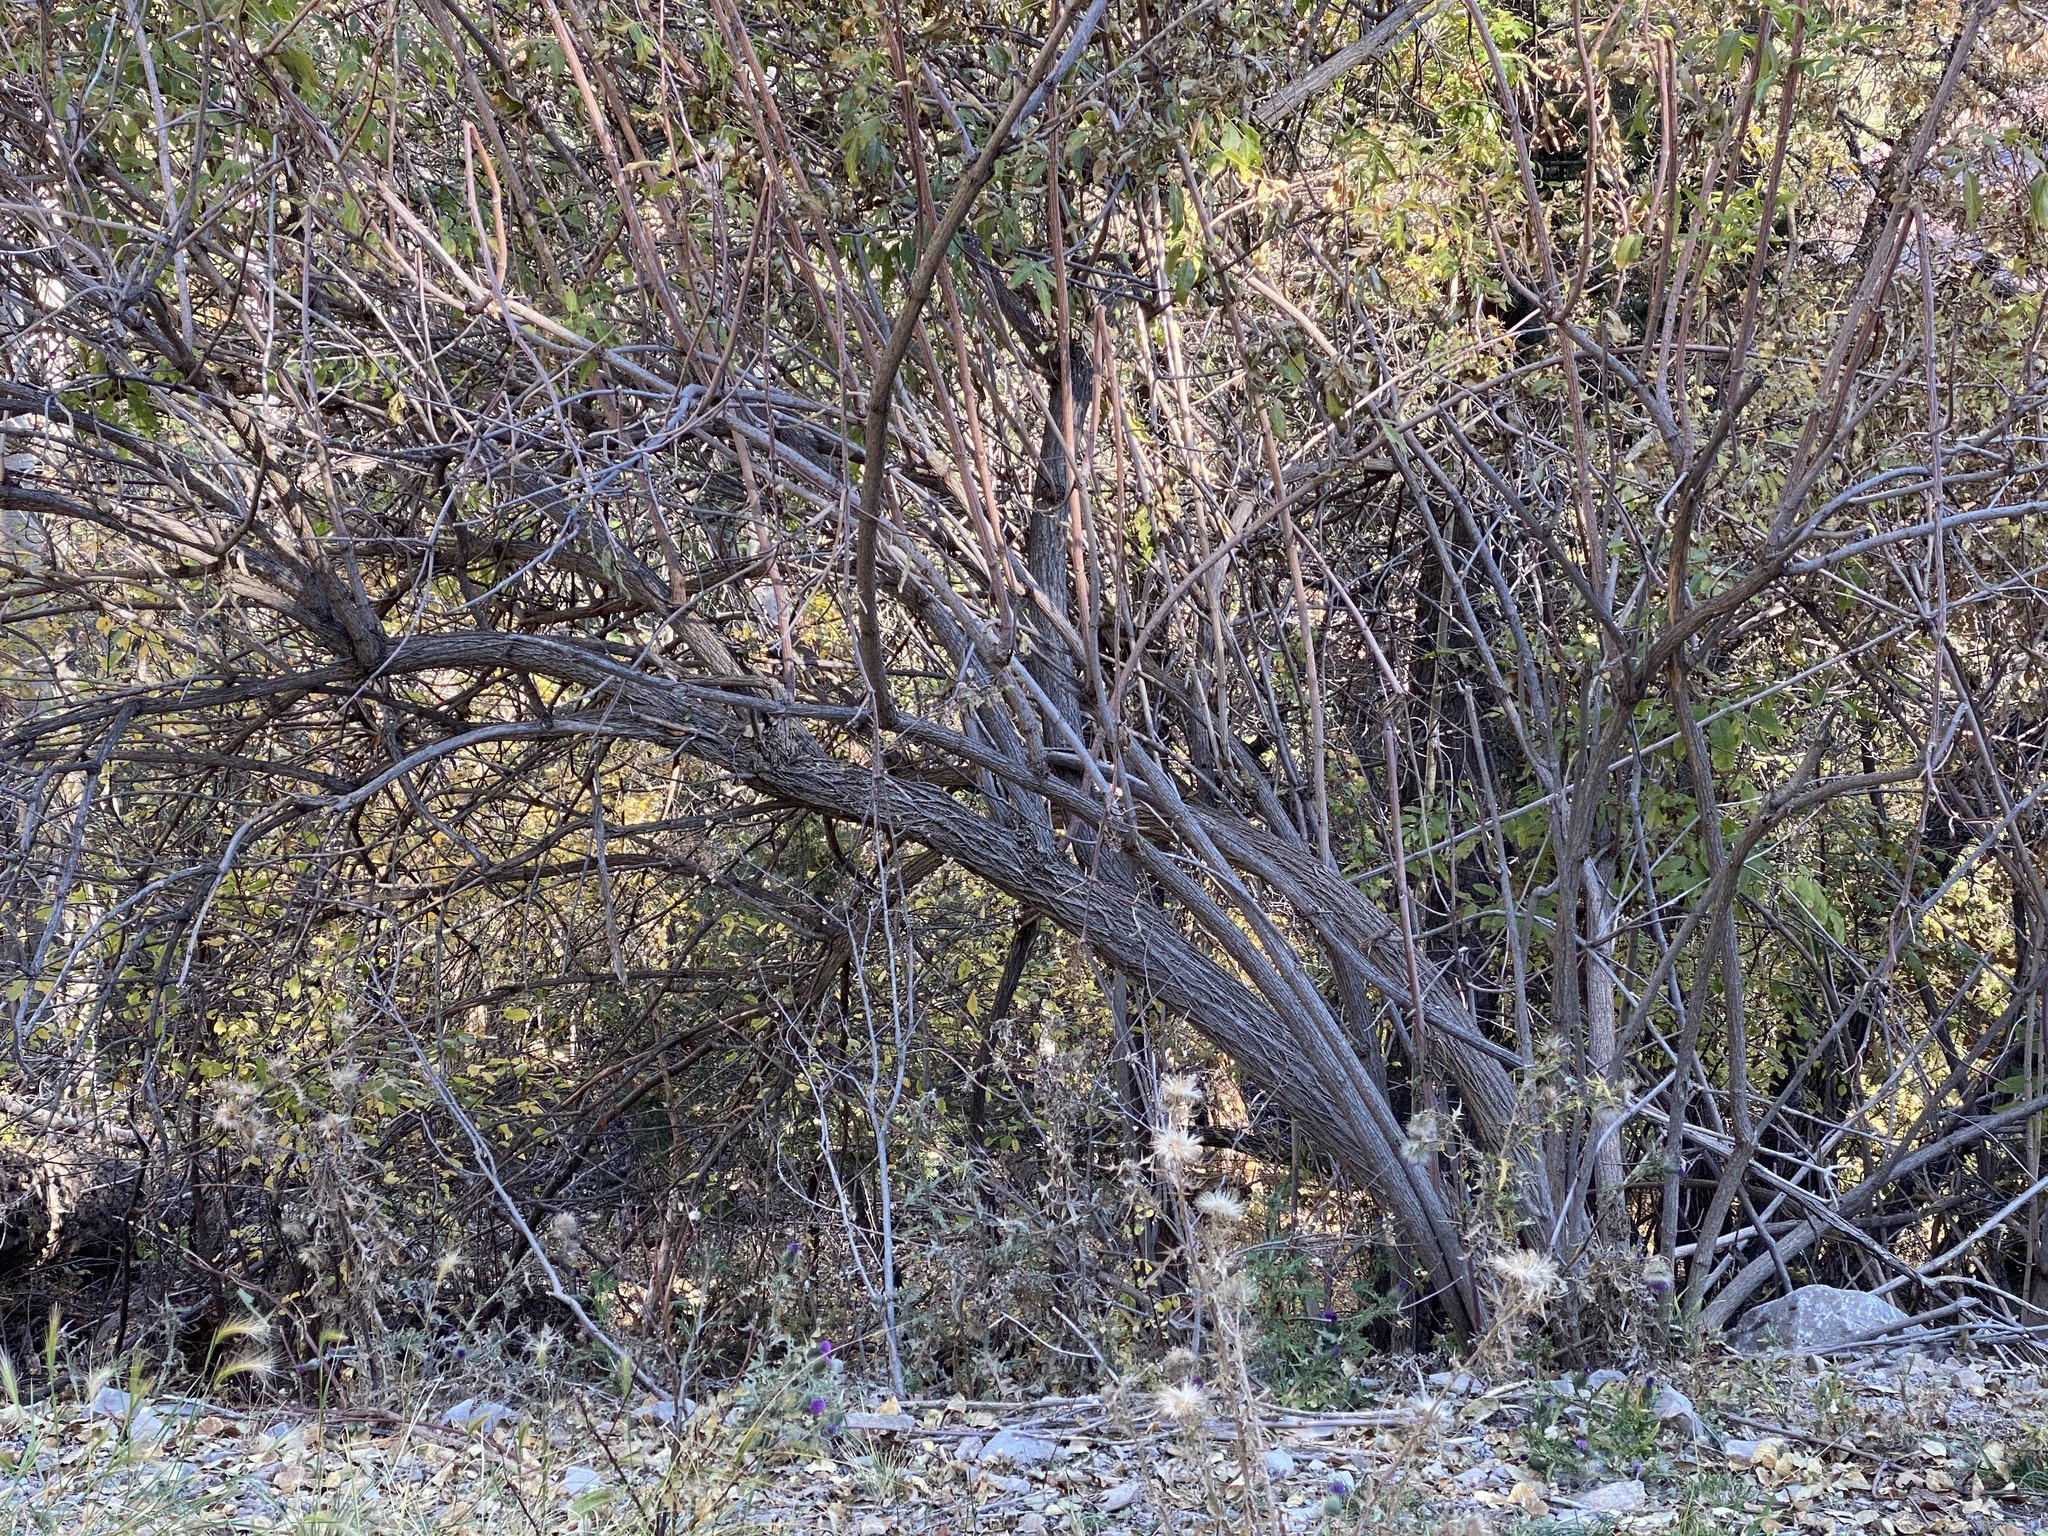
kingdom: Plantae
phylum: Tracheophyta
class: Magnoliopsida
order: Dipsacales
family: Viburnaceae
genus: Sambucus
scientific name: Sambucus cerulea
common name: Blue elder
